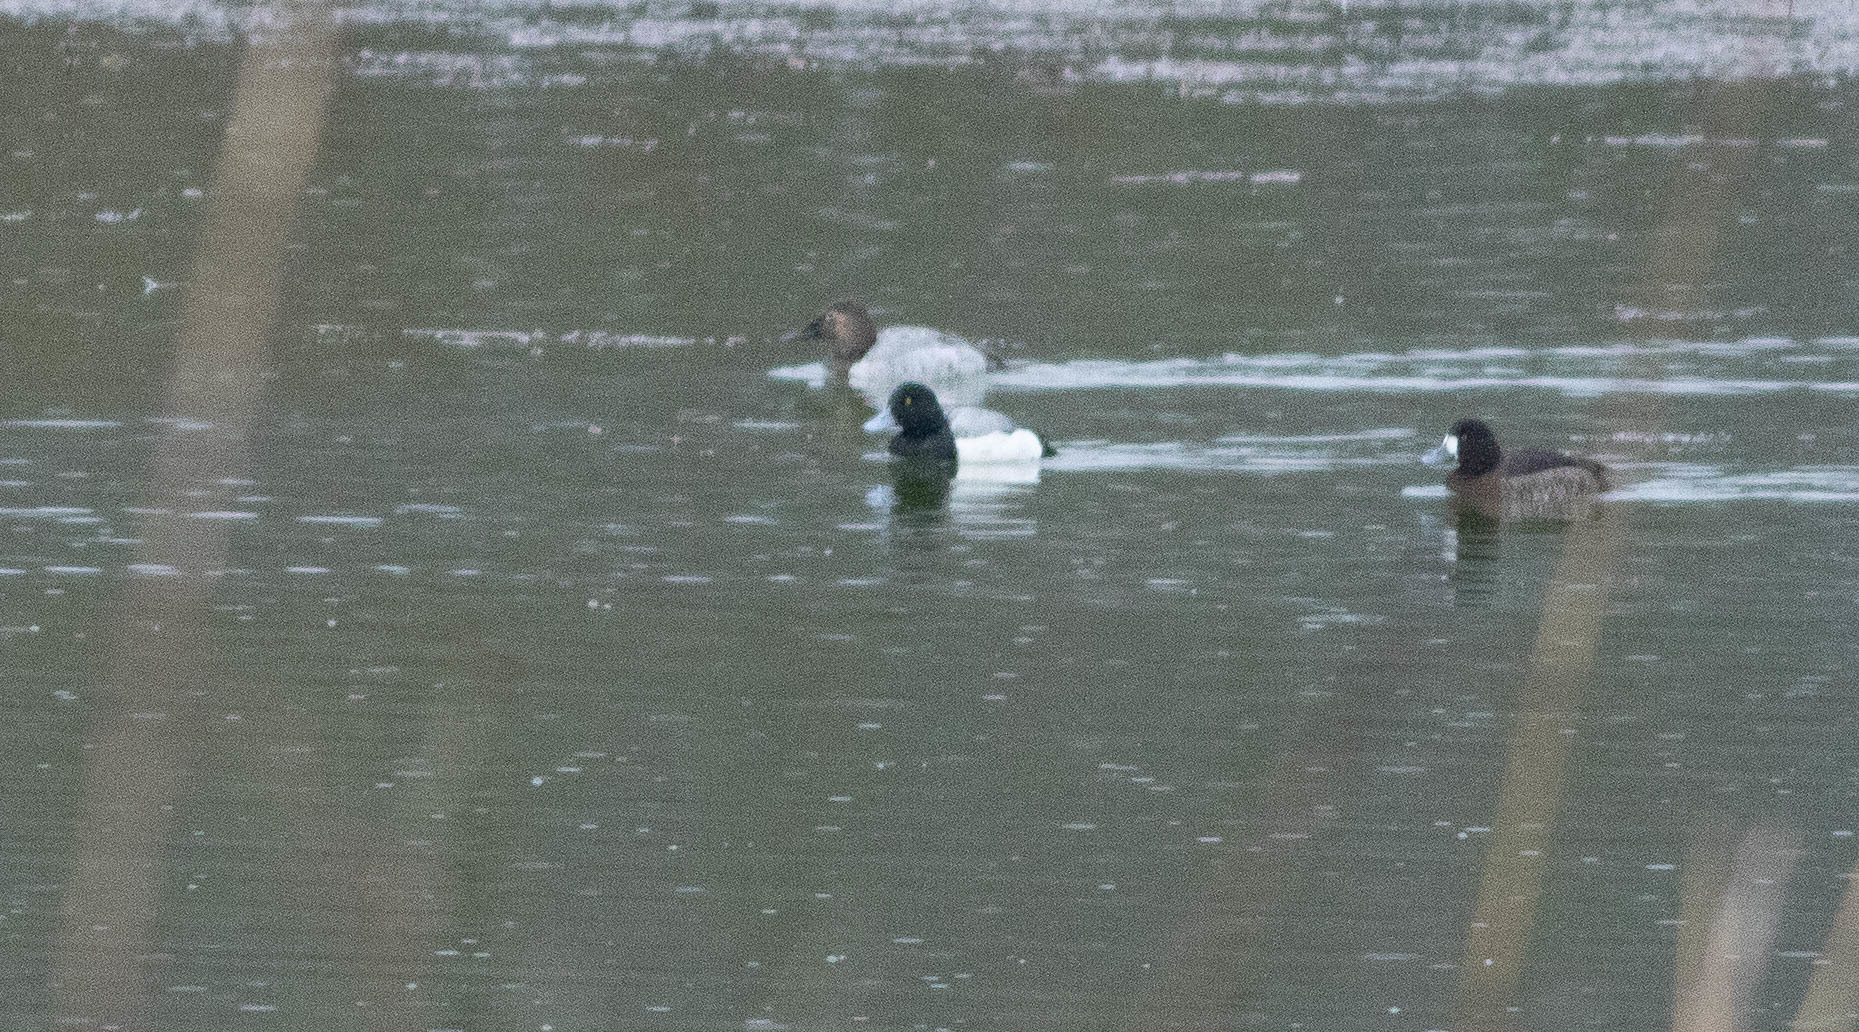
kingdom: Animalia
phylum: Chordata
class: Aves
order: Anseriformes
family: Anatidae
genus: Aythya
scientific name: Aythya marila
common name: Greater scaup
